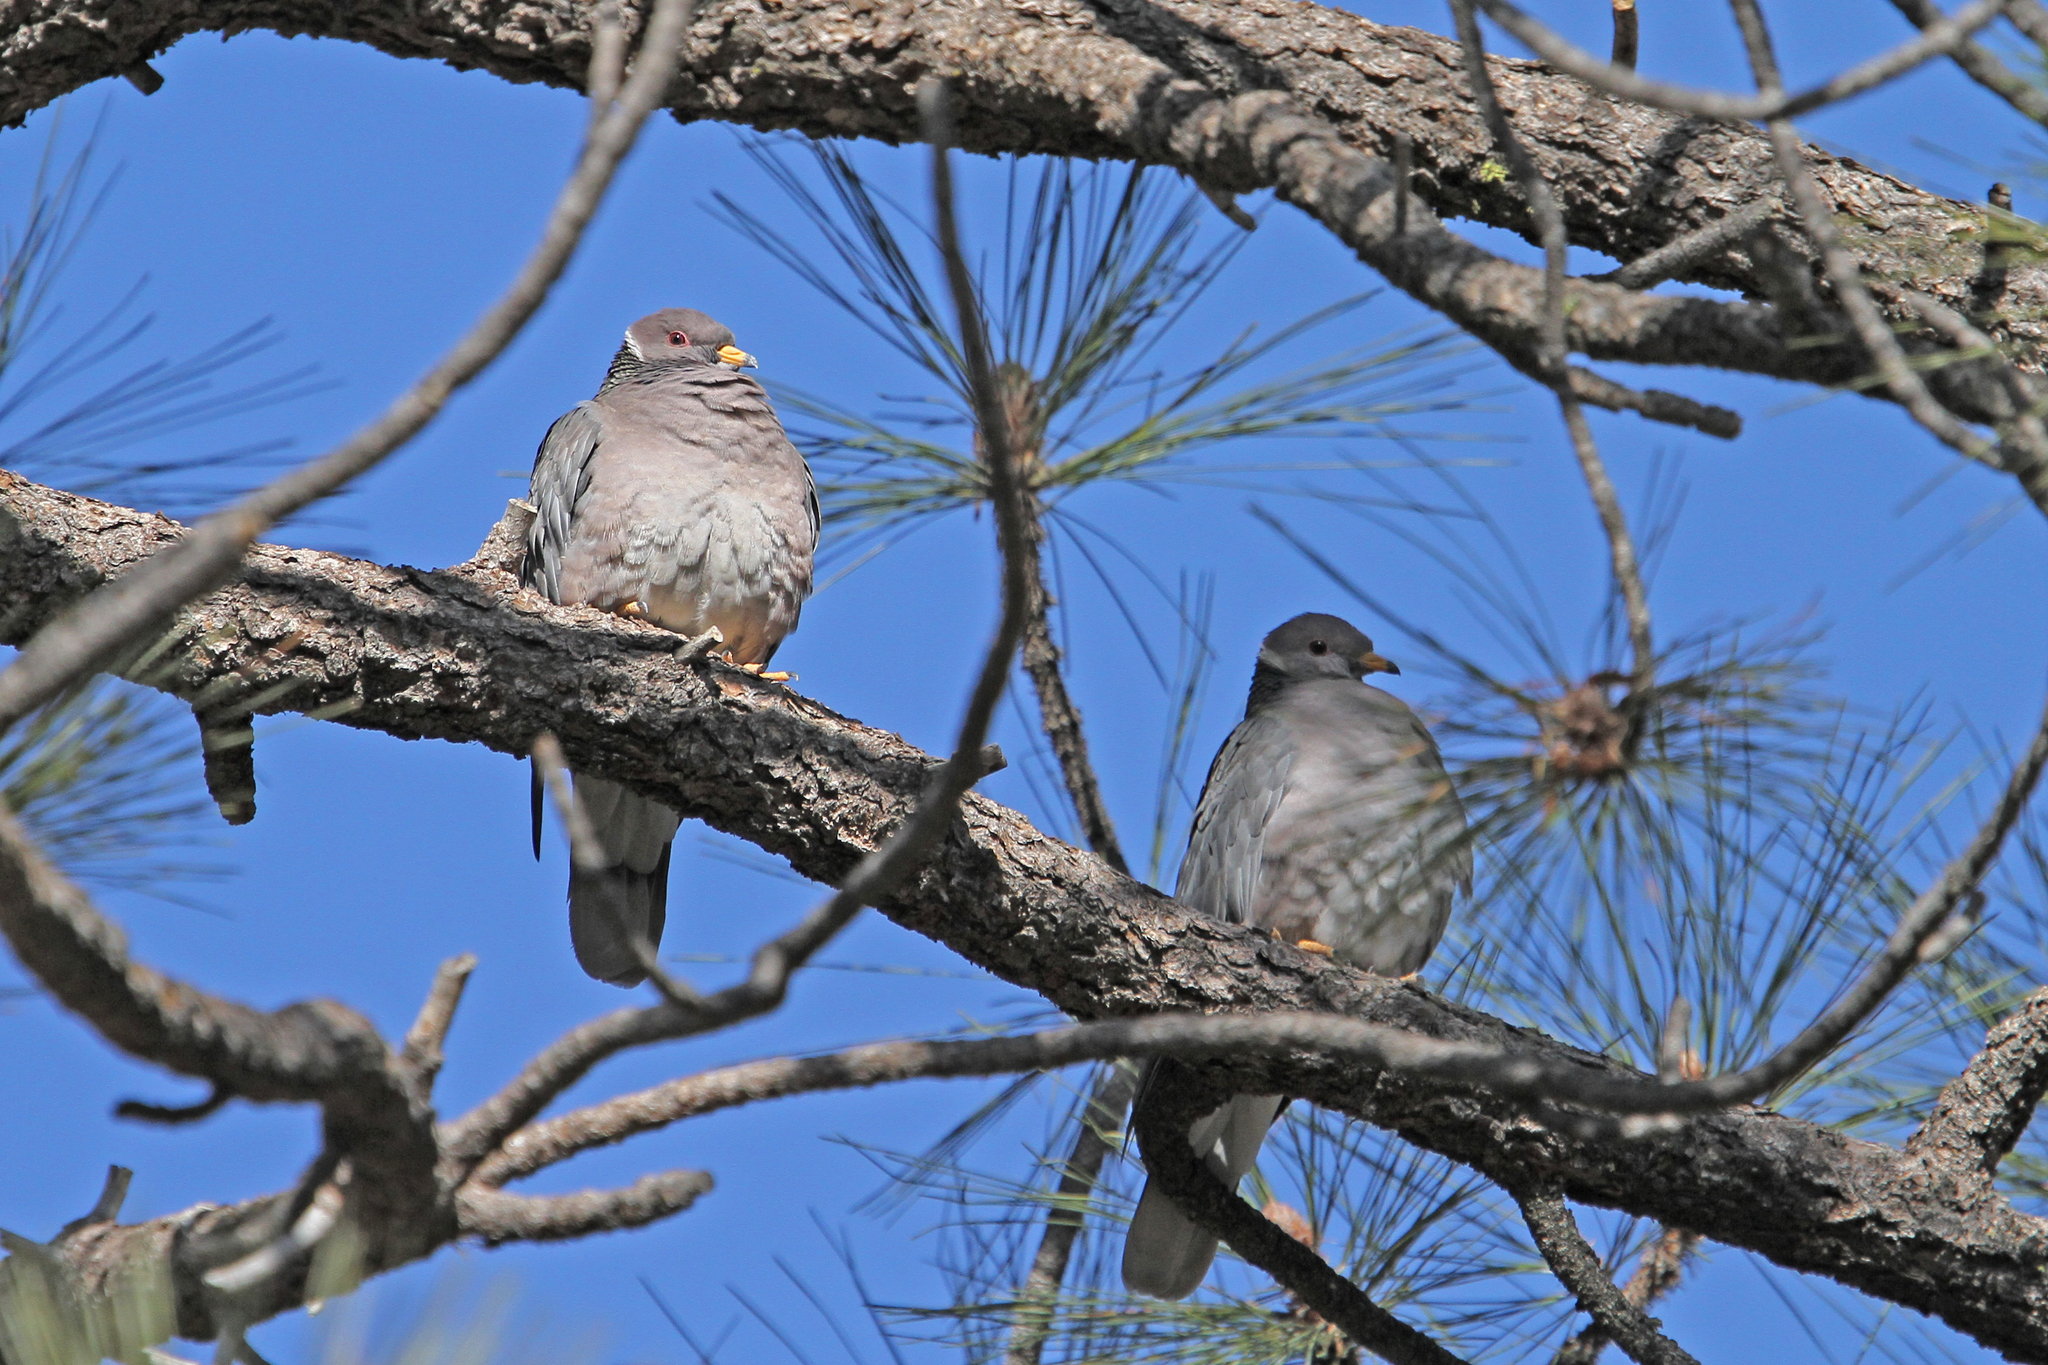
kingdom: Animalia
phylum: Chordata
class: Aves
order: Columbiformes
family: Columbidae
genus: Patagioenas
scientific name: Patagioenas fasciata
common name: Band-tailed pigeon
